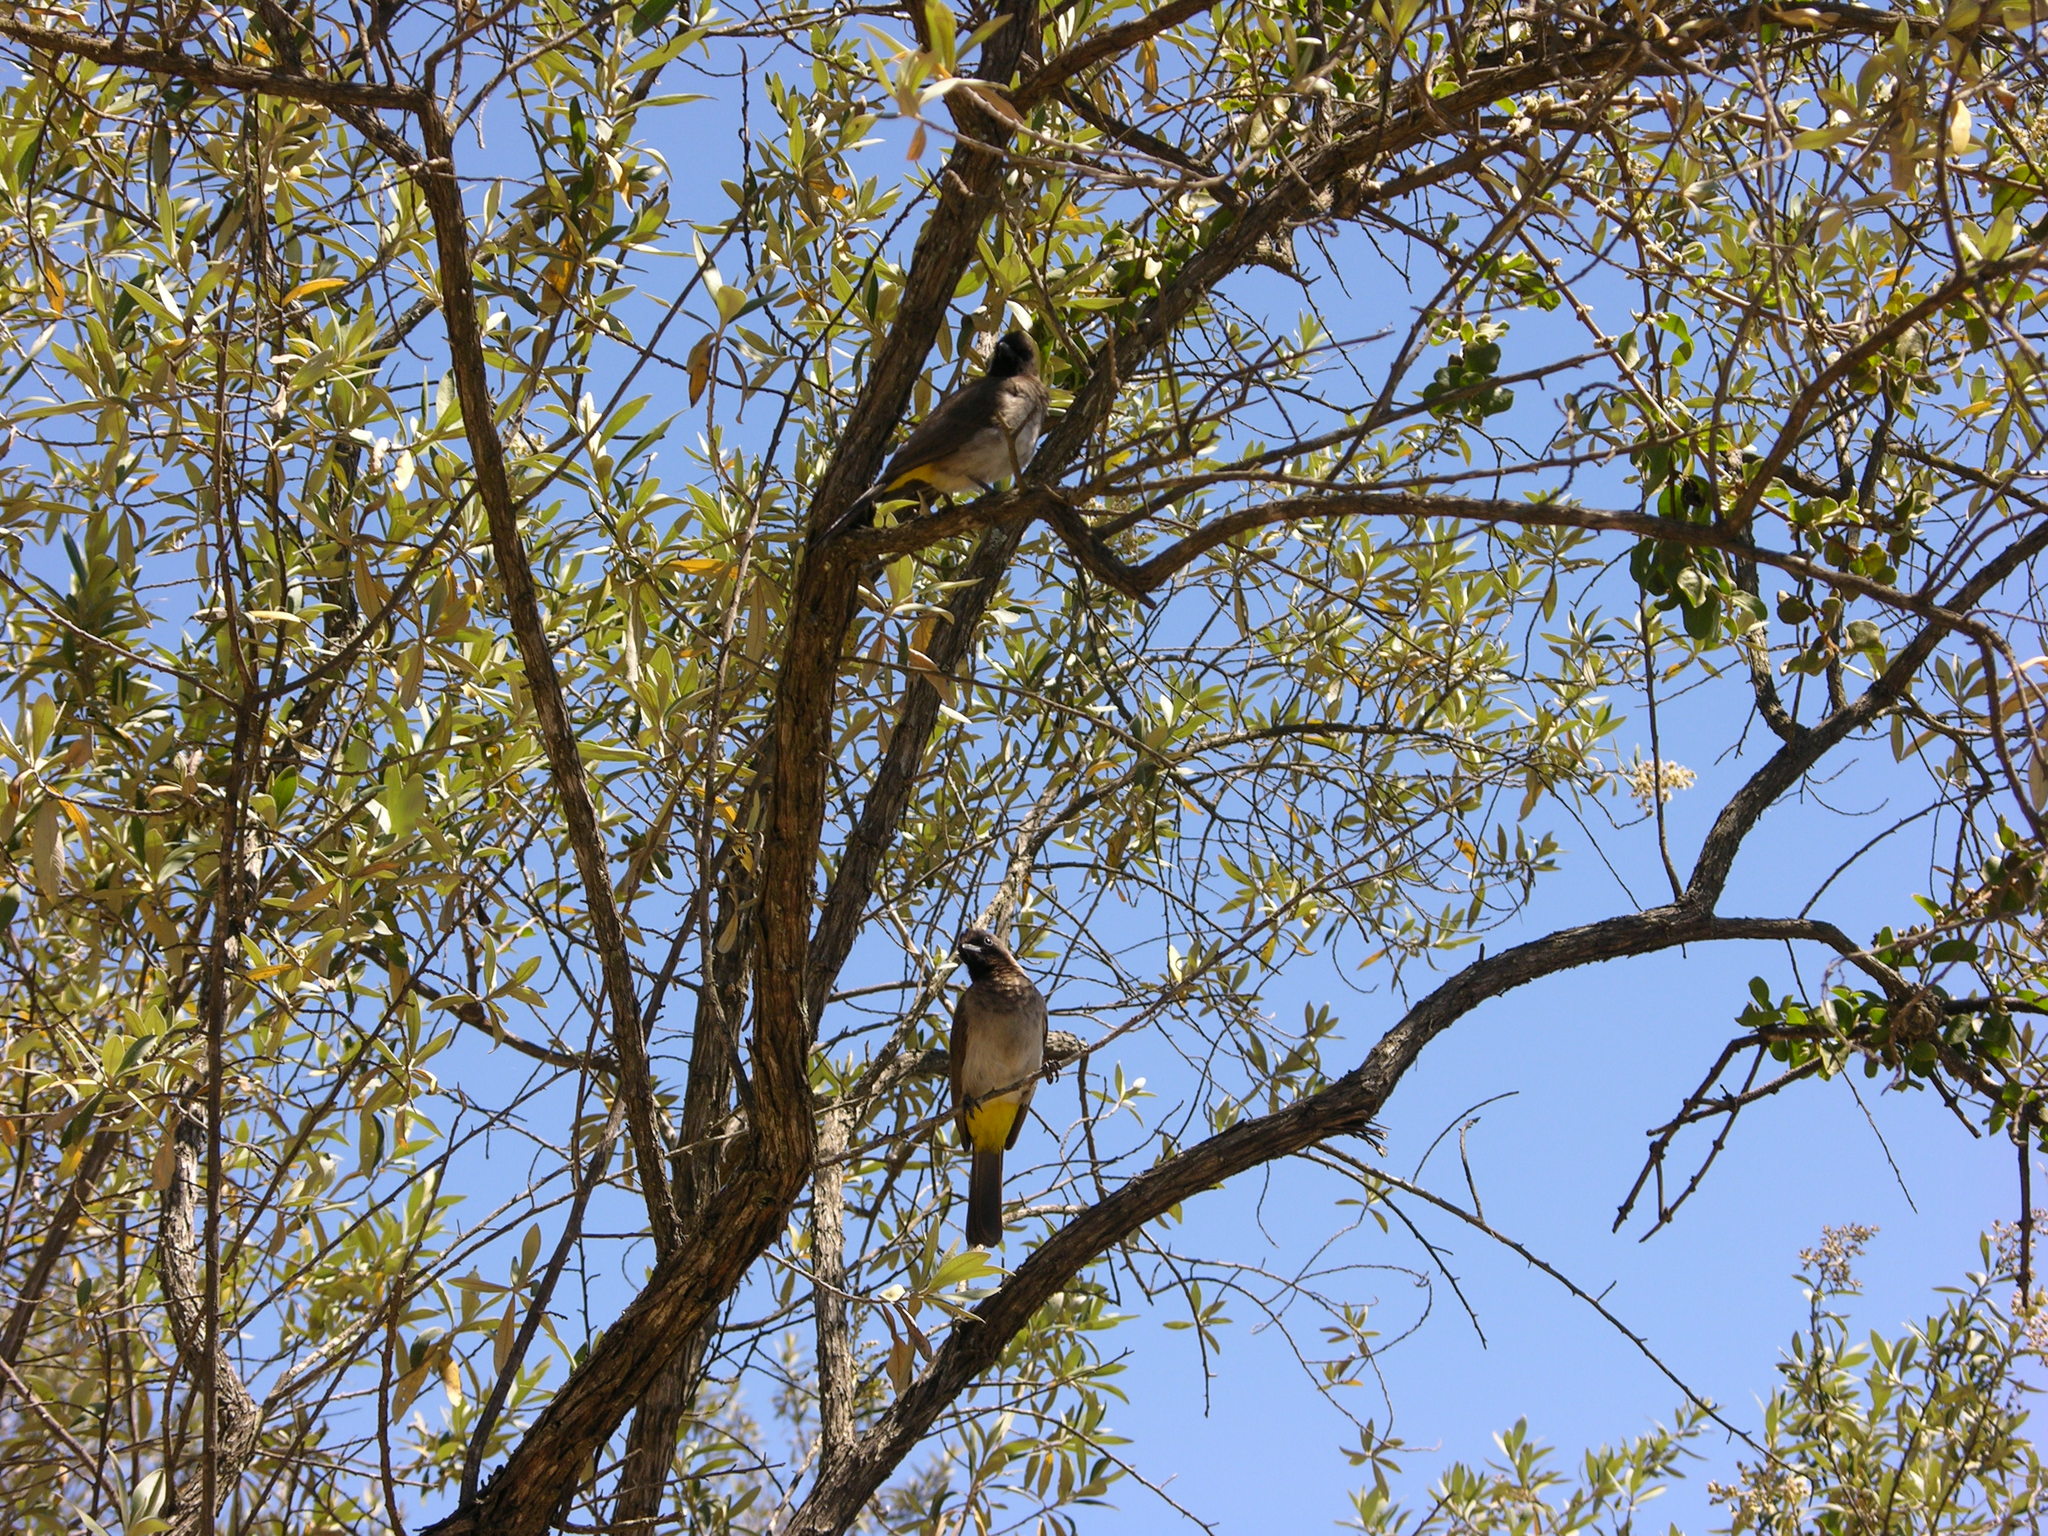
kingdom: Animalia
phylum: Chordata
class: Aves
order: Passeriformes
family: Pycnonotidae
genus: Pycnonotus
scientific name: Pycnonotus barbatus
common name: Common bulbul
